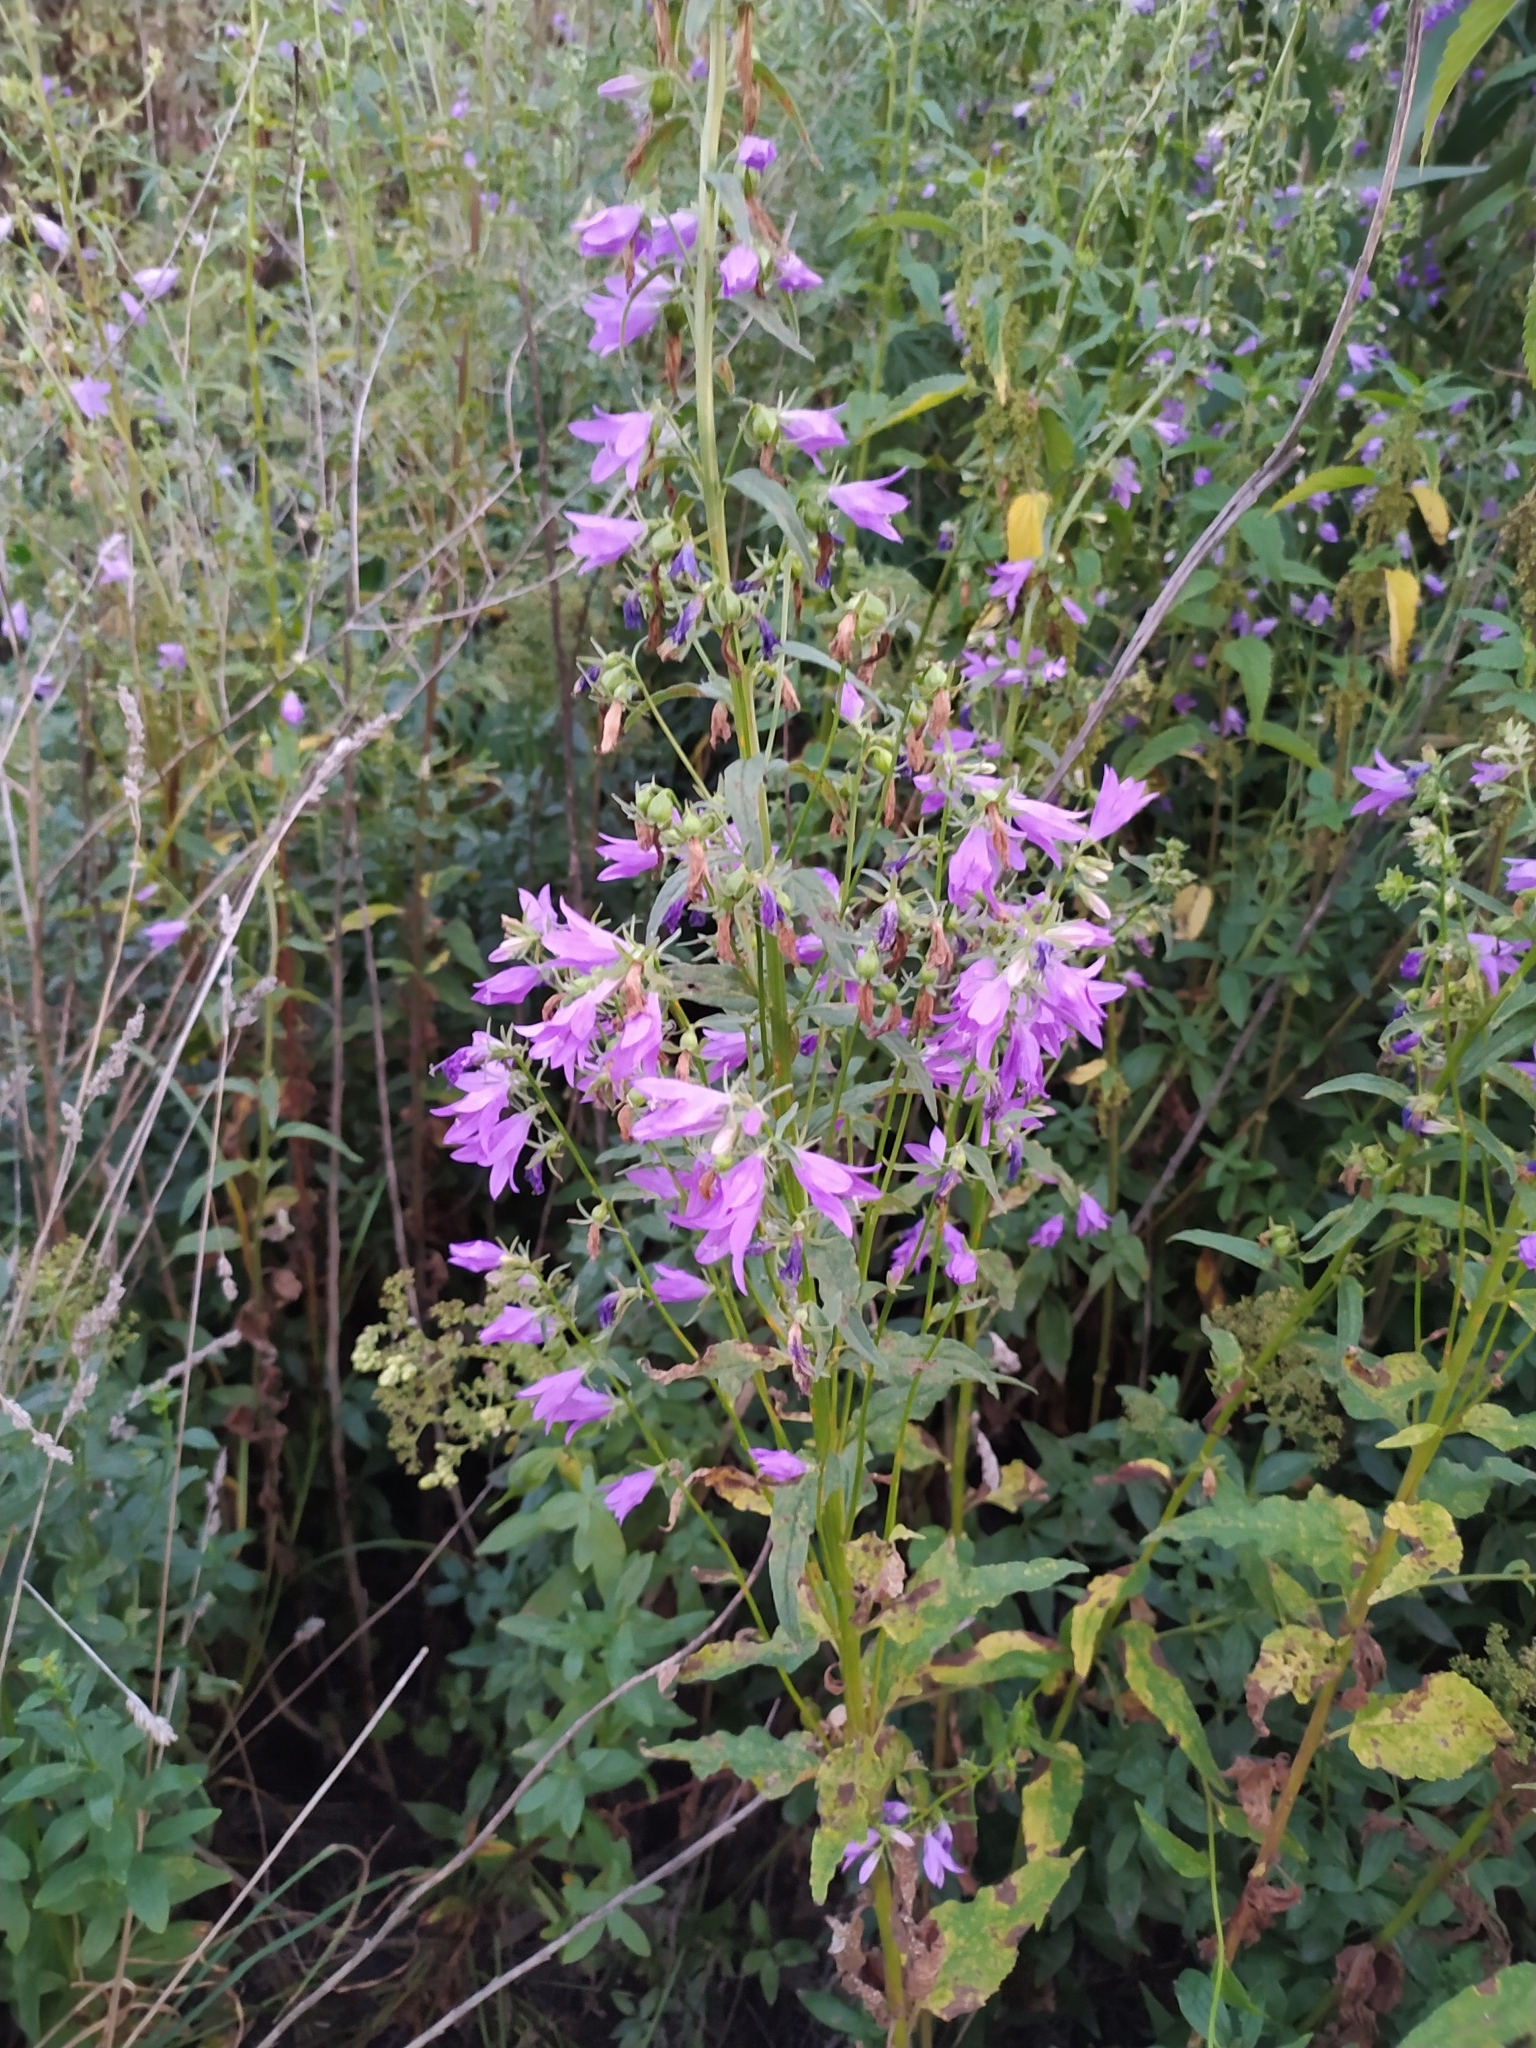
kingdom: Plantae
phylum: Tracheophyta
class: Magnoliopsida
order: Asterales
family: Campanulaceae
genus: Campanula
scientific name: Campanula rapunculoides
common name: Creeping bellflower
